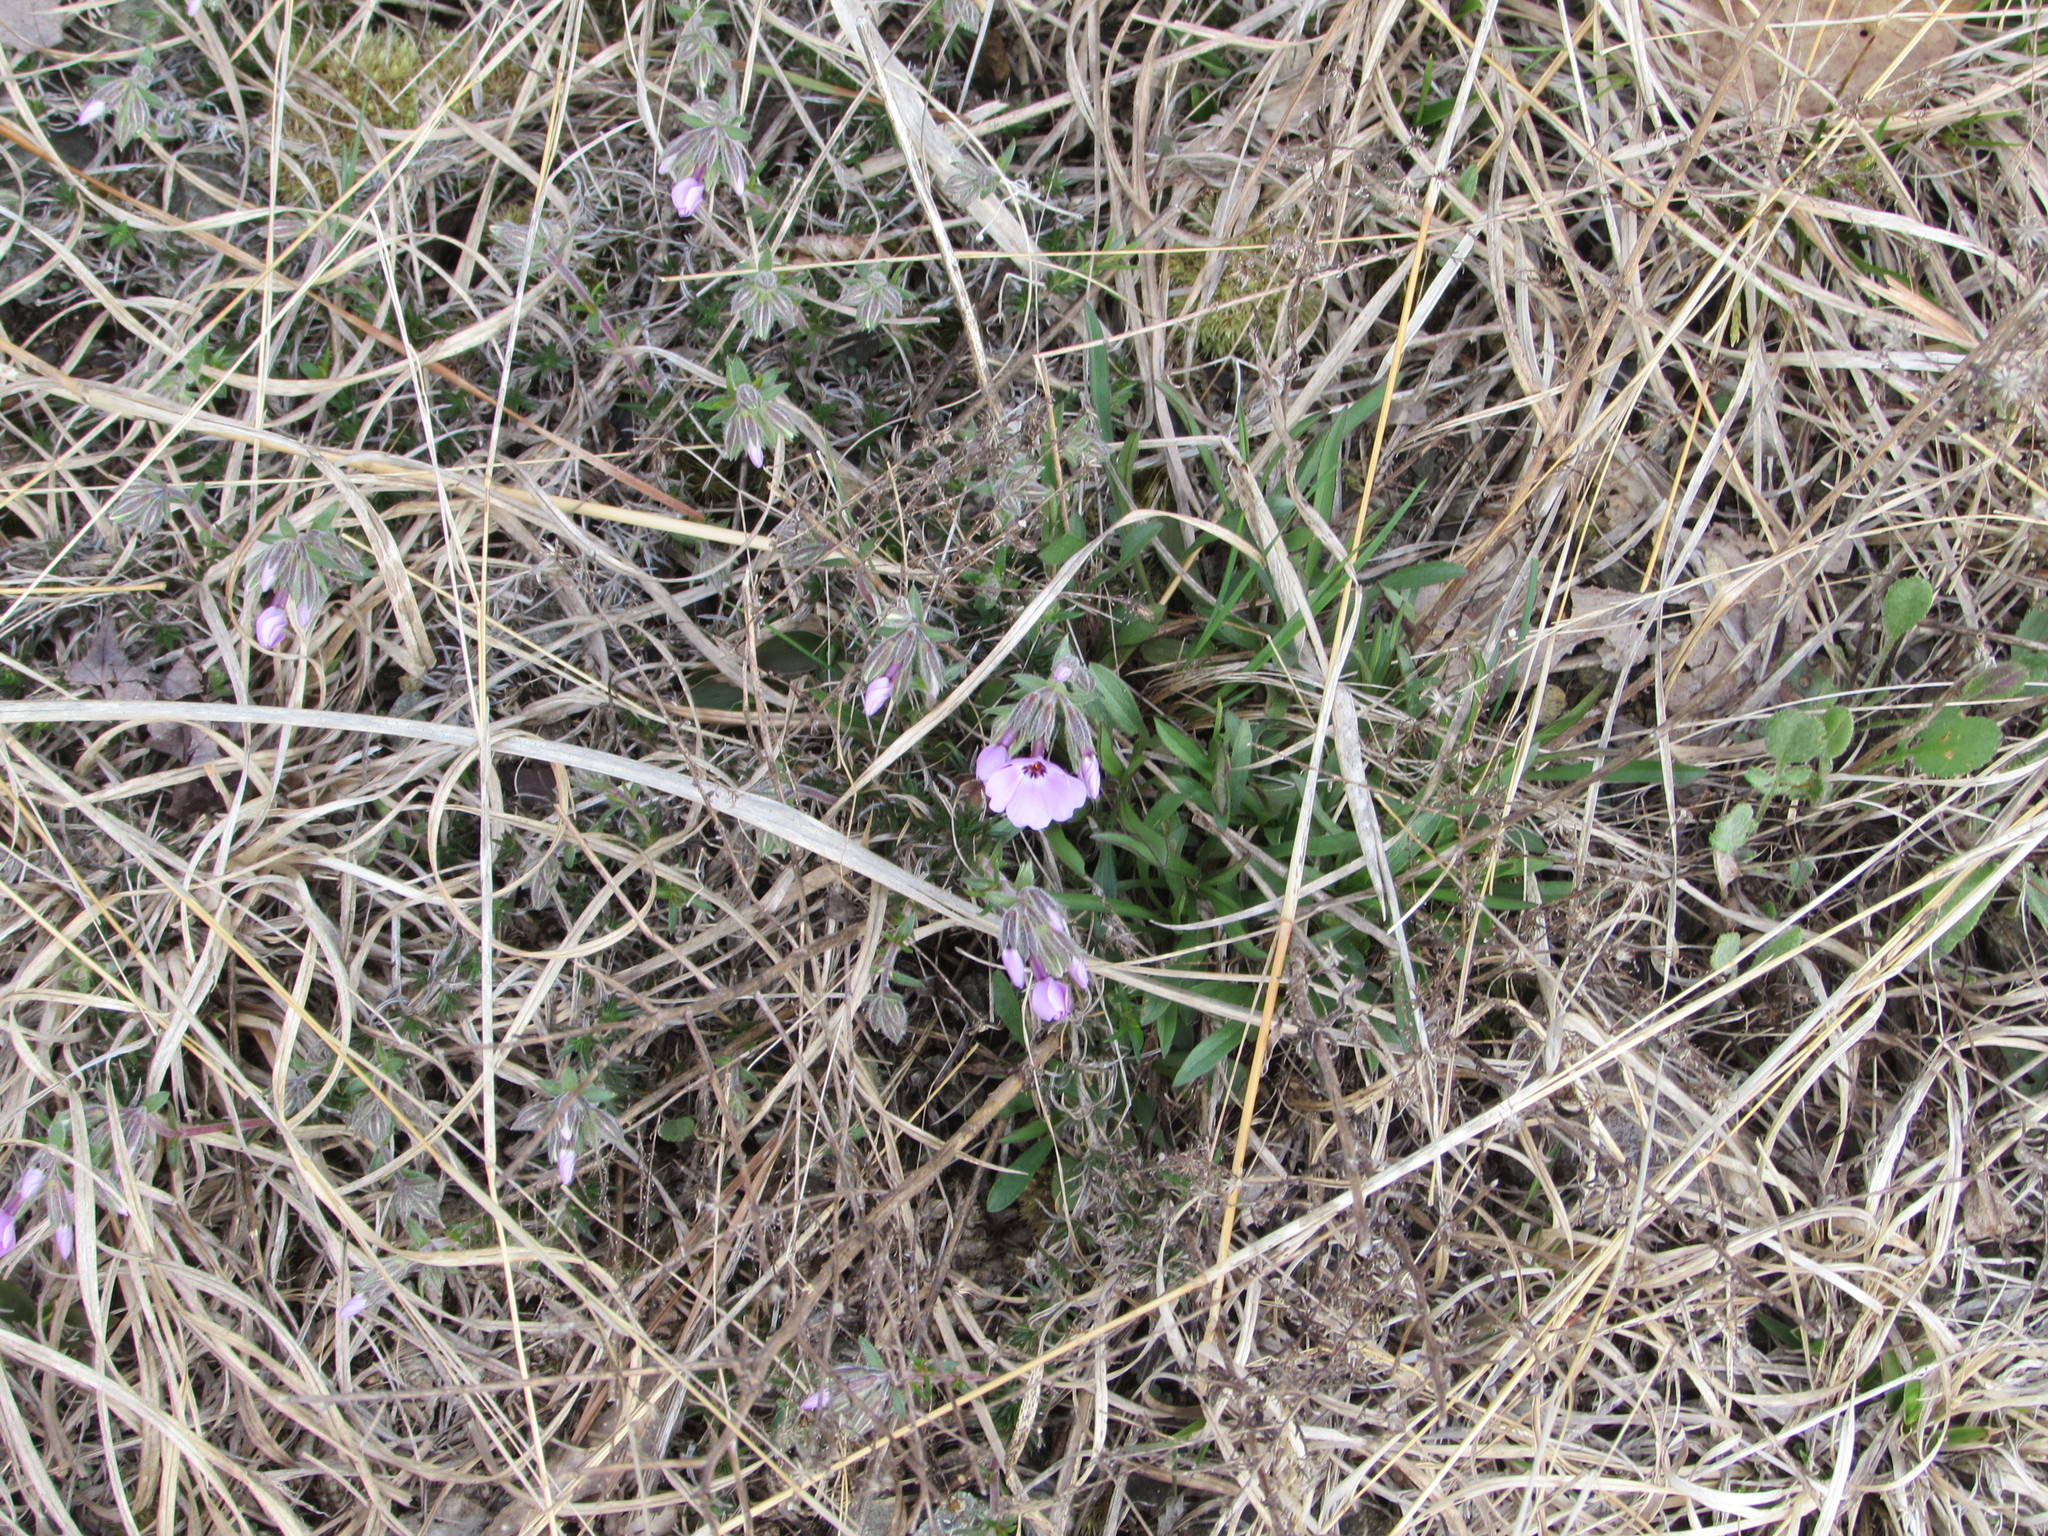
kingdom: Plantae
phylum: Tracheophyta
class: Magnoliopsida
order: Ericales
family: Polemoniaceae
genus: Phlox
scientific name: Phlox subulata
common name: Moss phlox
